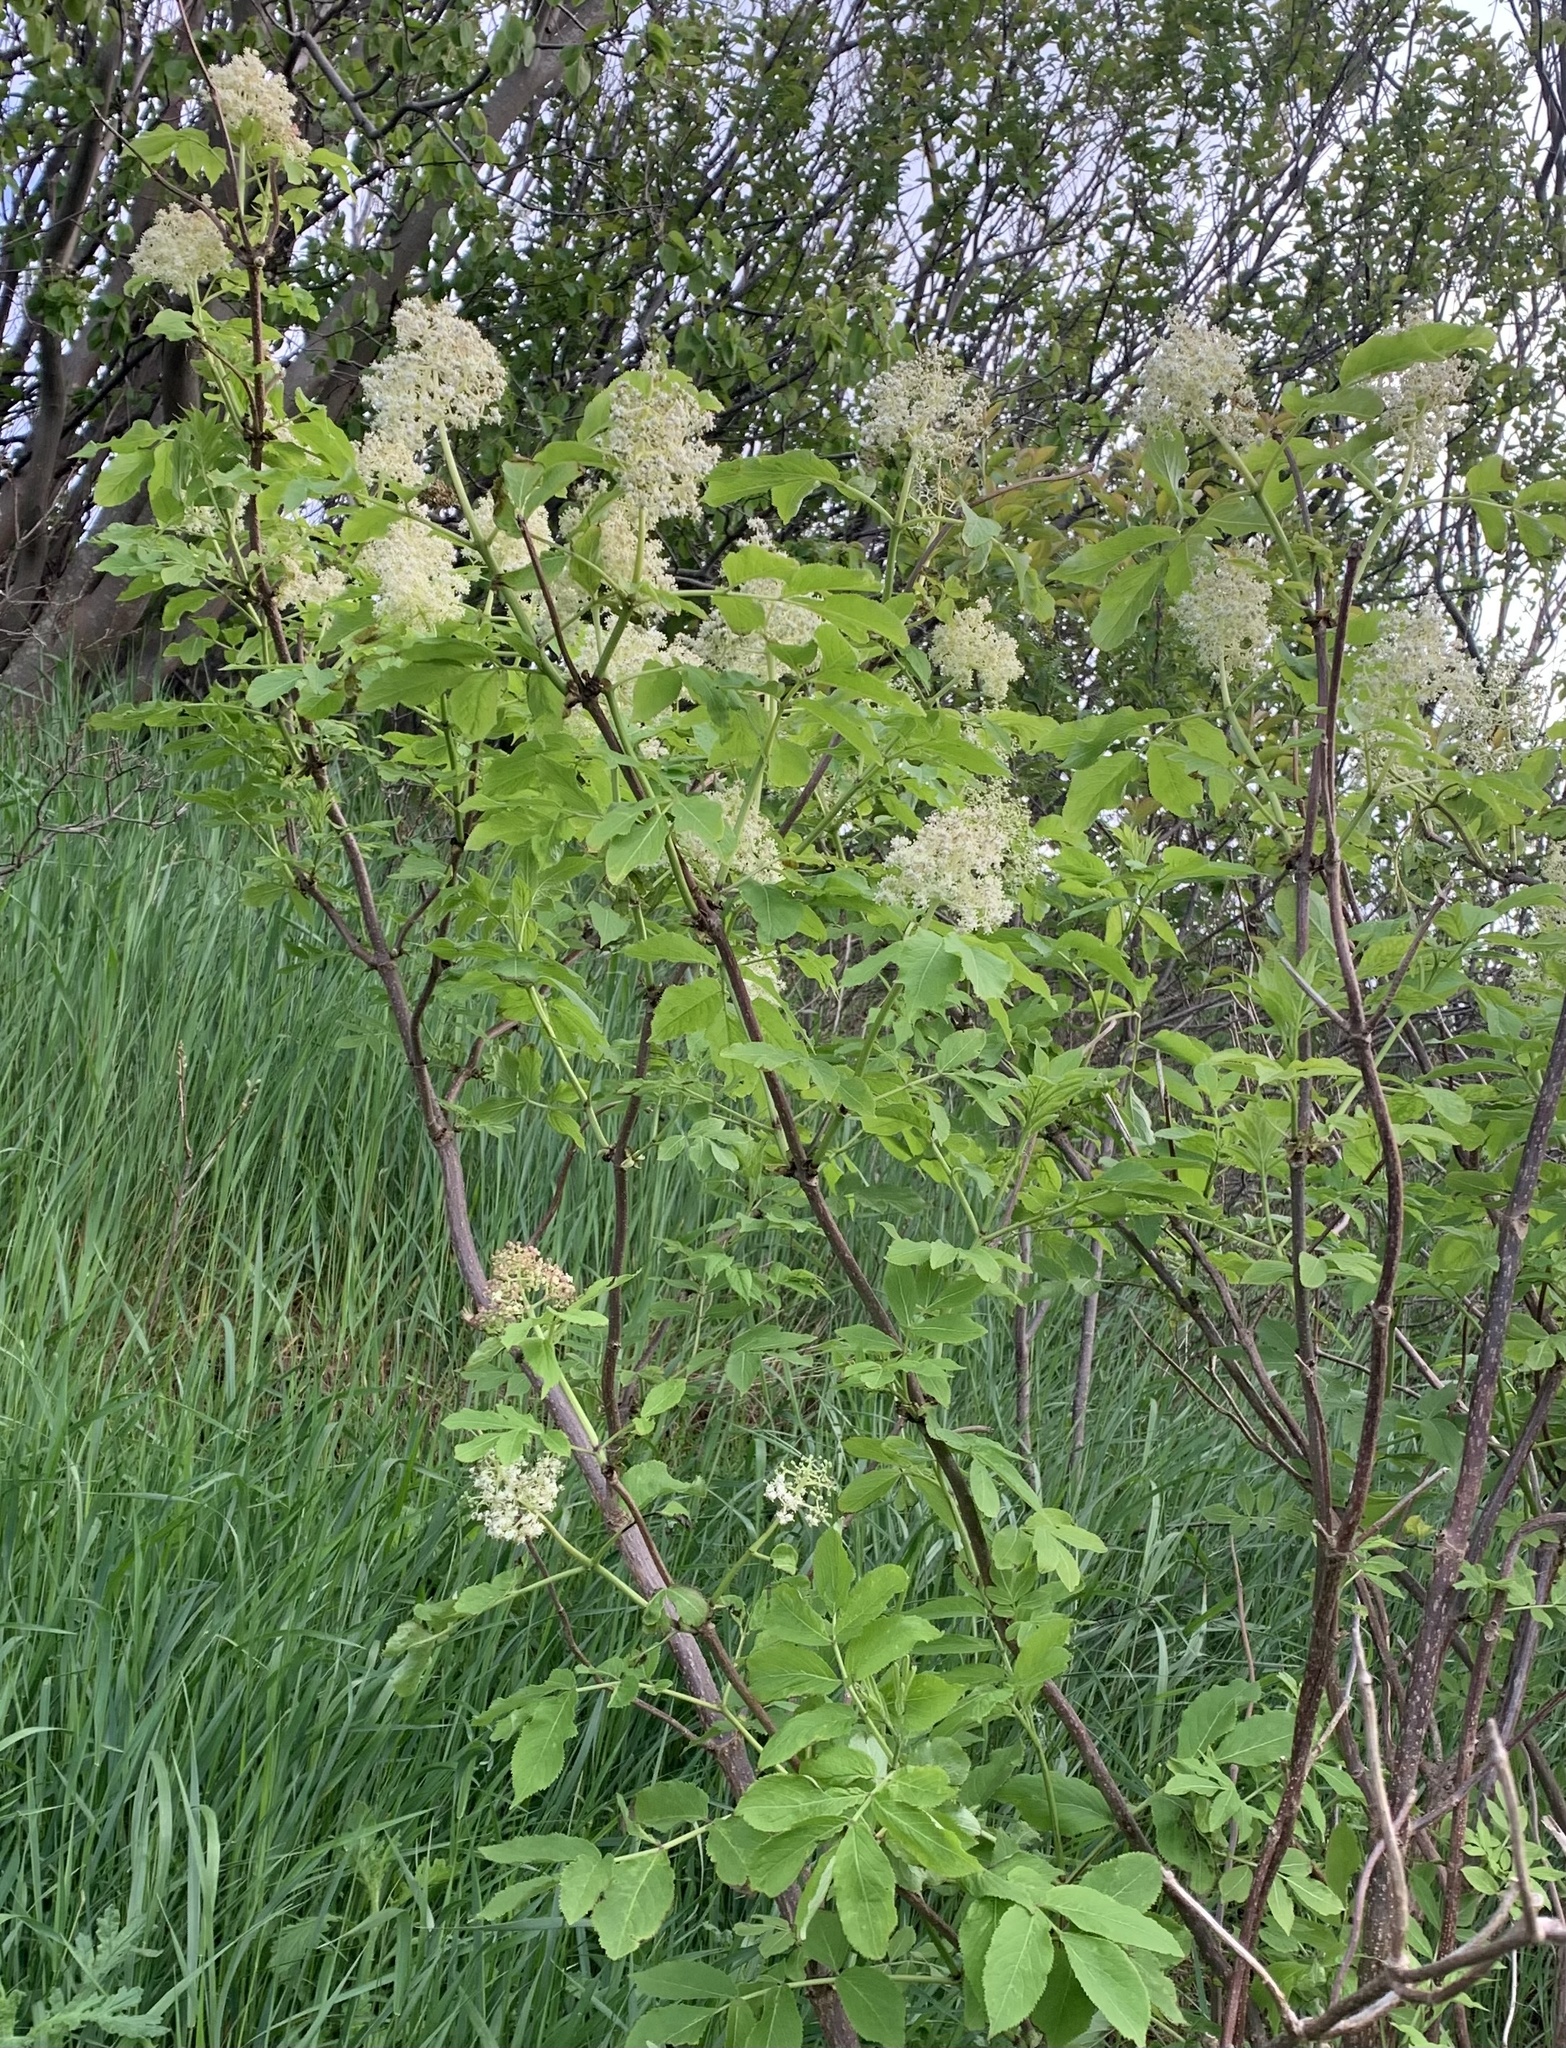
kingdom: Plantae
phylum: Tracheophyta
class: Magnoliopsida
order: Dipsacales
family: Viburnaceae
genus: Sambucus
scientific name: Sambucus racemosa
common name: Red-berried elder
